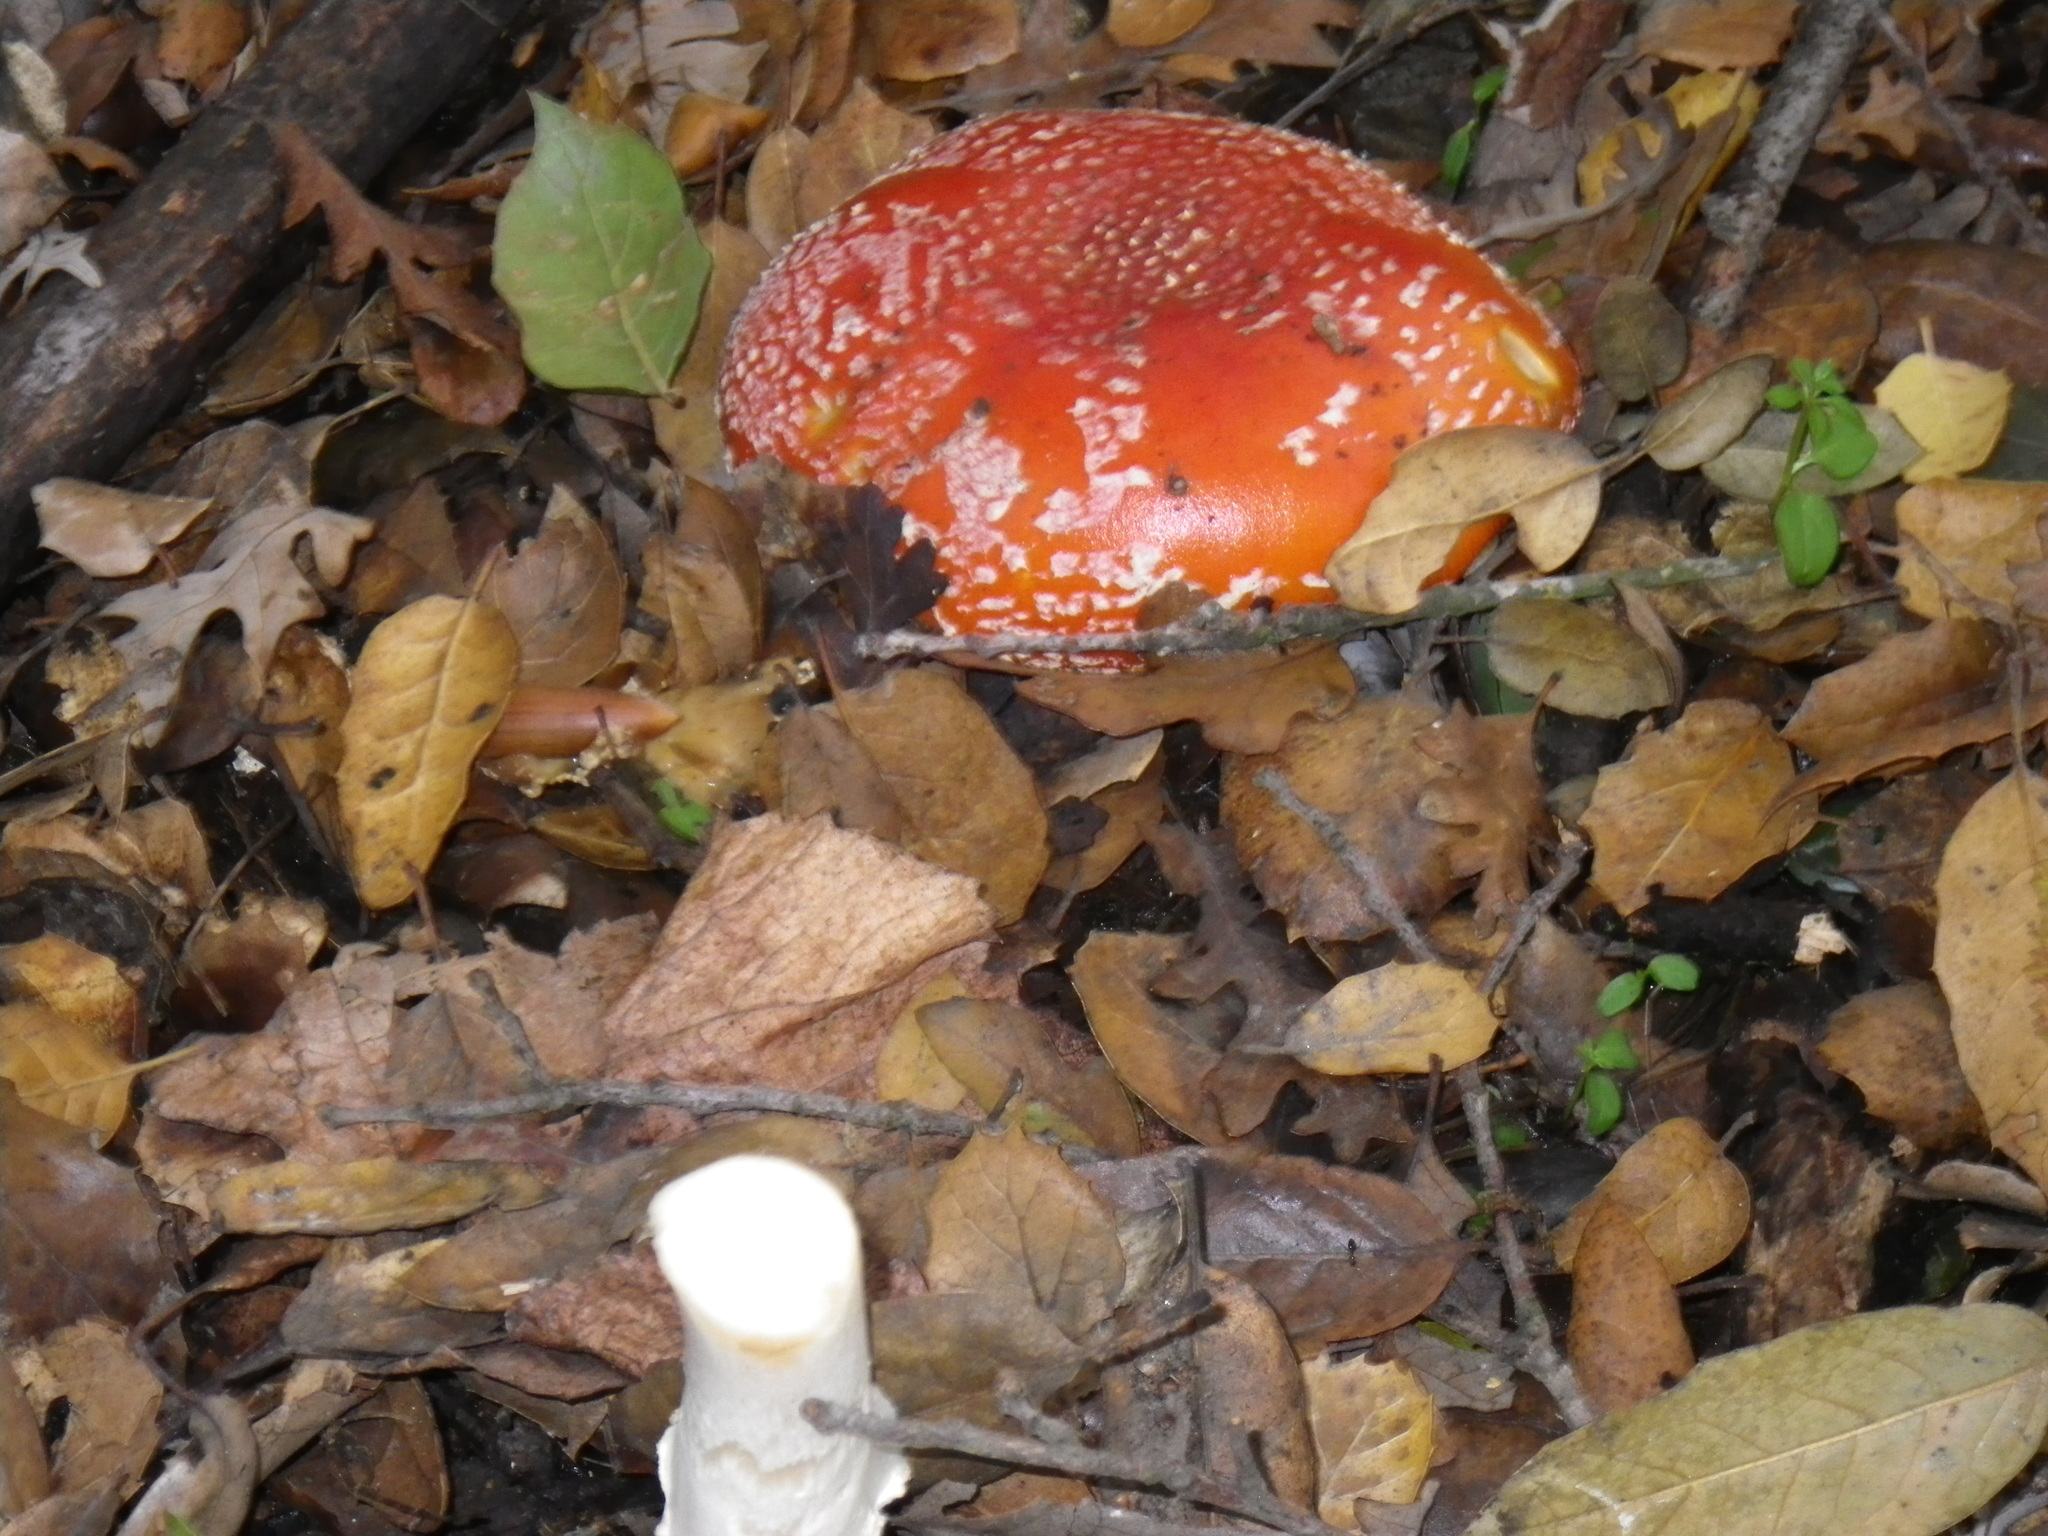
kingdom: Fungi
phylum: Basidiomycota
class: Agaricomycetes
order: Agaricales
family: Amanitaceae
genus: Amanita
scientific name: Amanita muscaria
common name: Fly agaric
